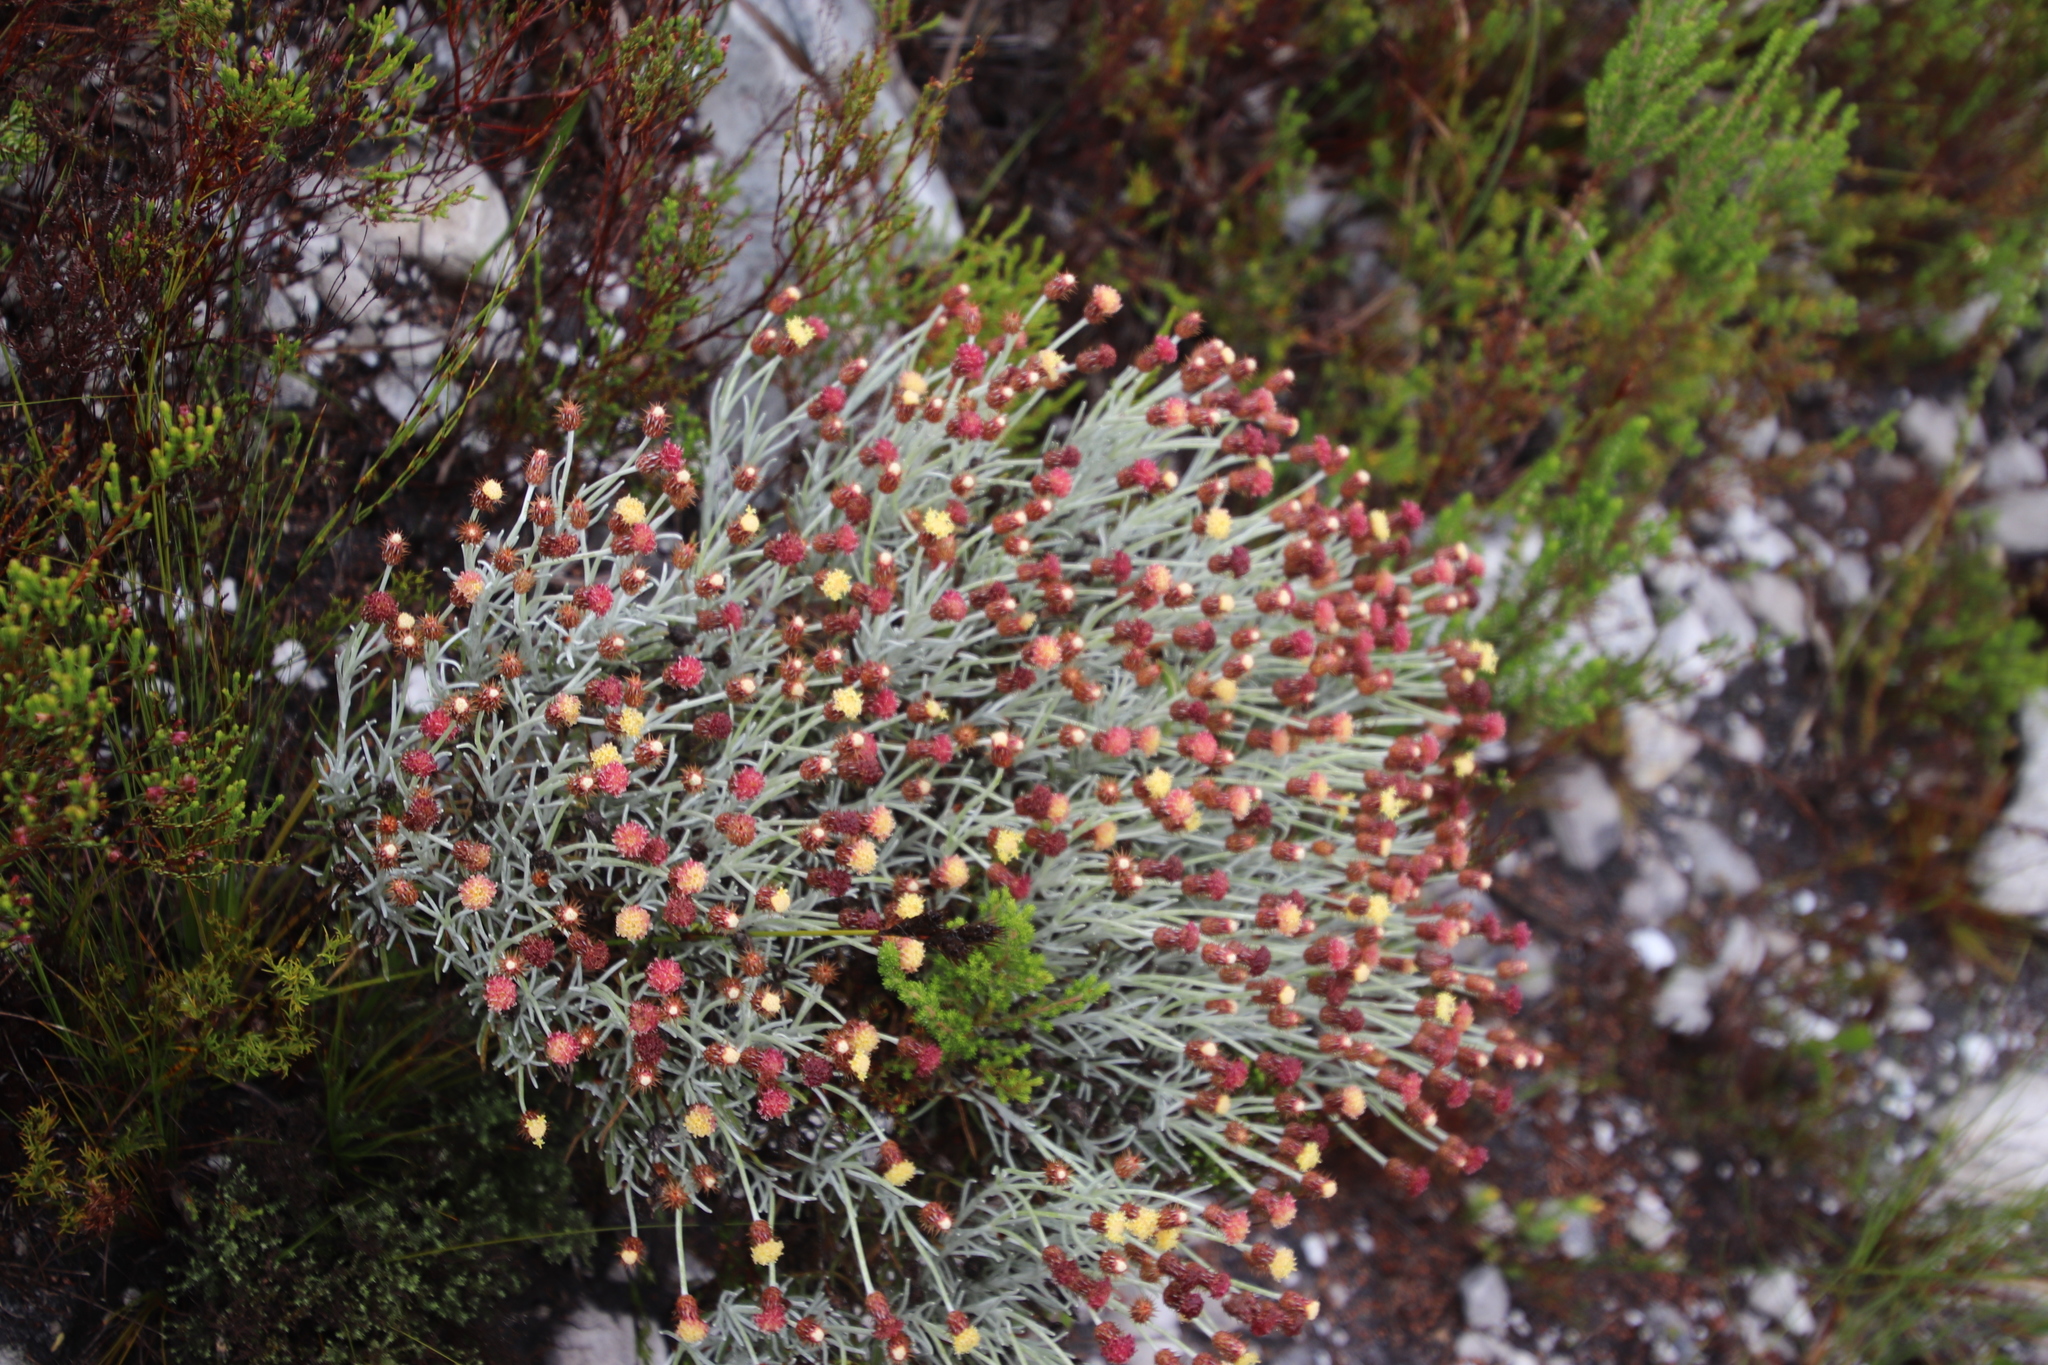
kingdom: Plantae
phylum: Tracheophyta
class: Magnoliopsida
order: Asterales
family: Asteraceae
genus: Syncarpha
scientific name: Syncarpha gnaphaloides
